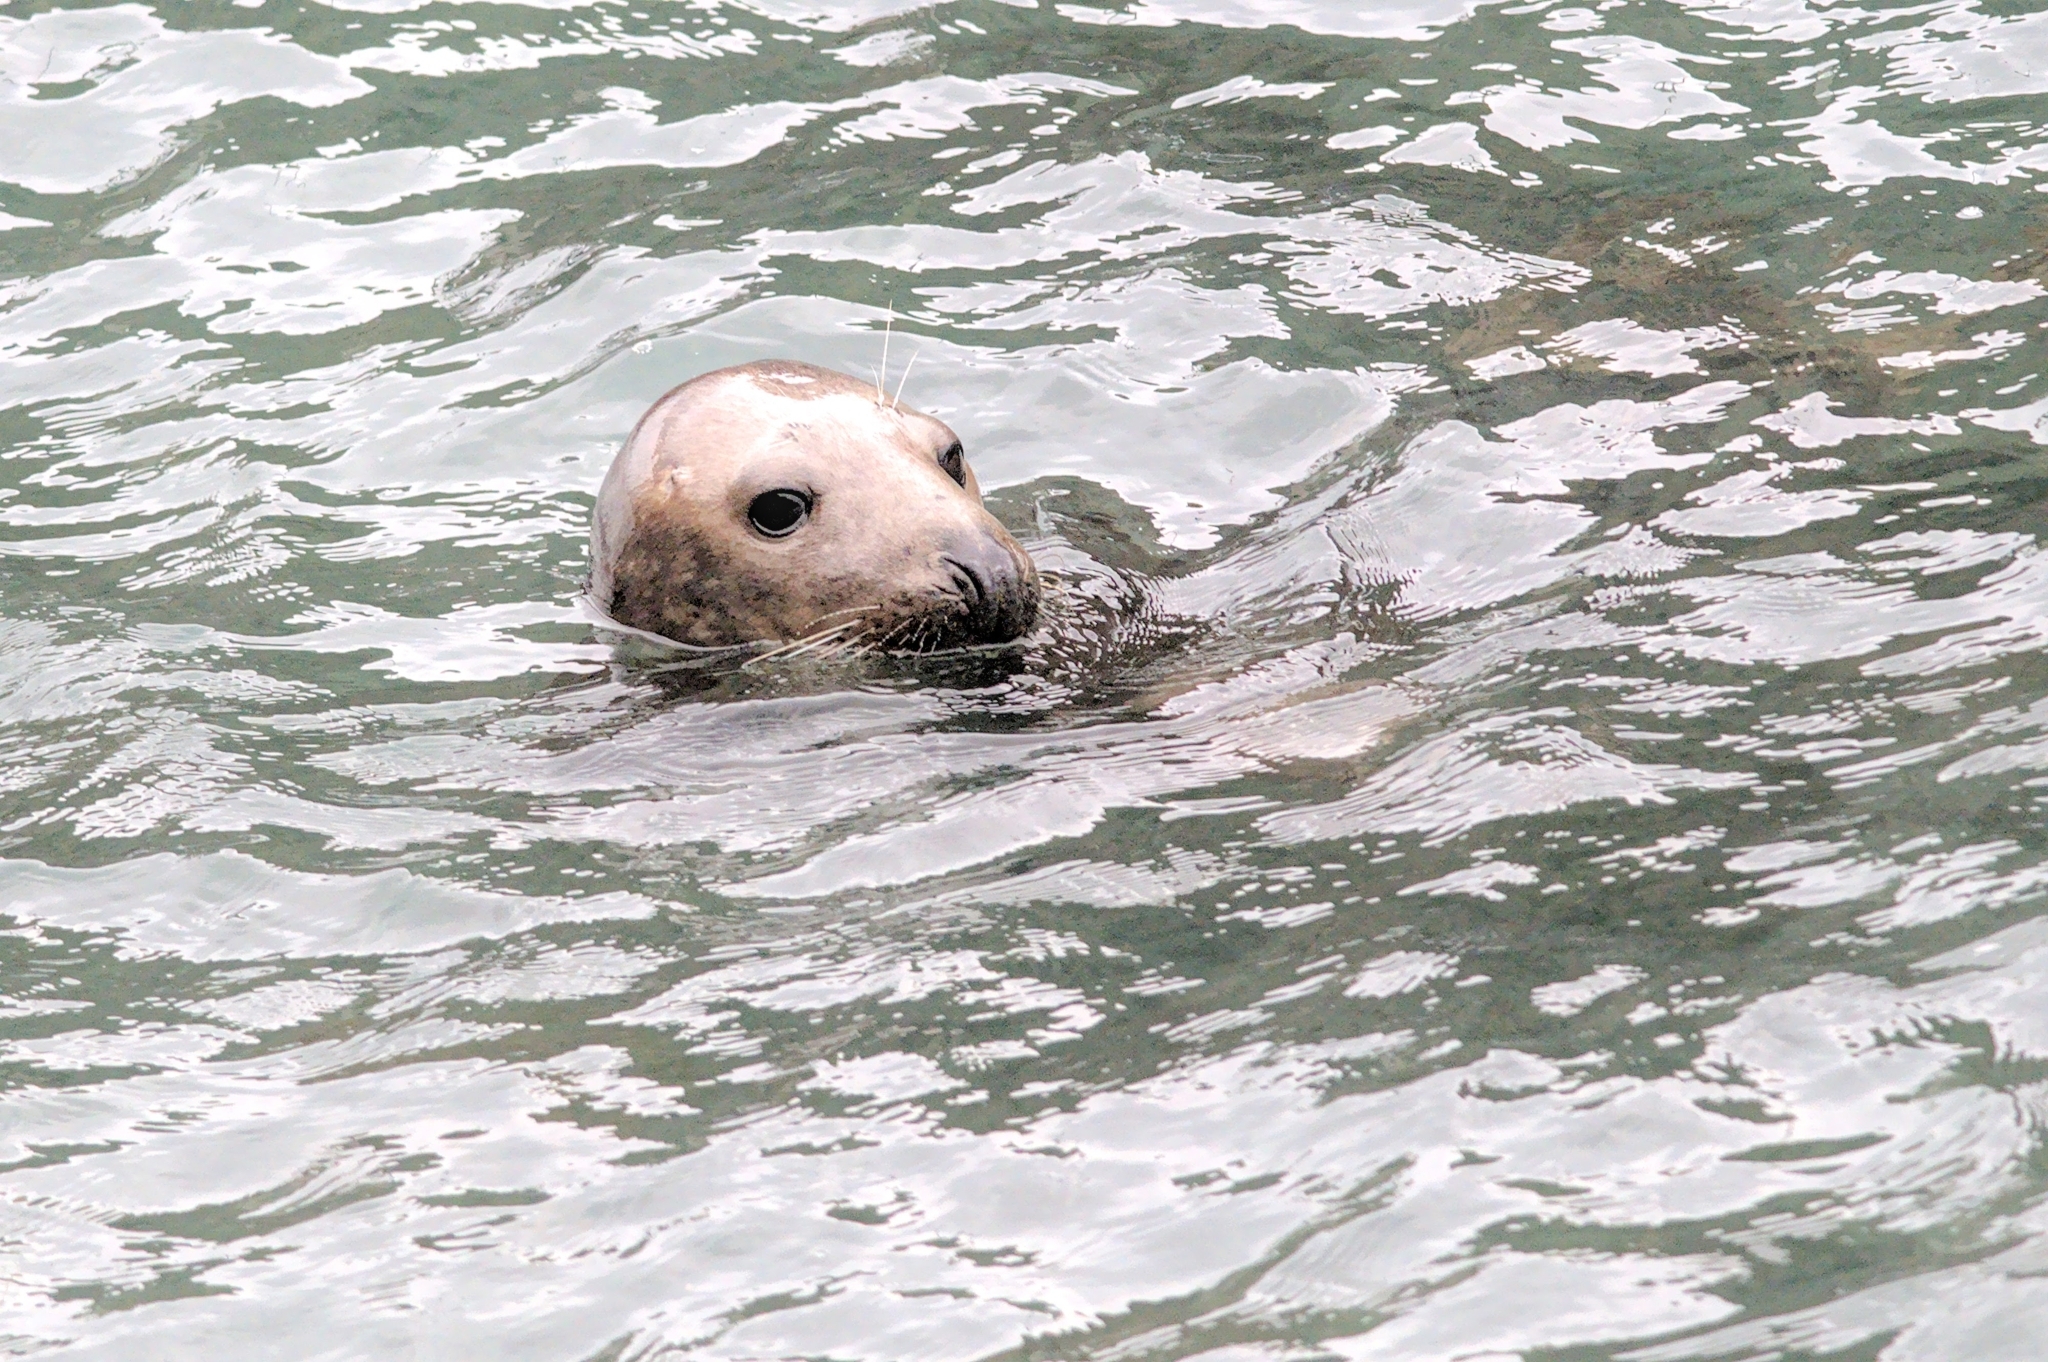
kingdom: Animalia
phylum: Chordata
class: Mammalia
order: Carnivora
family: Phocidae
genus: Halichoerus
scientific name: Halichoerus grypus
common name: Grey seal
